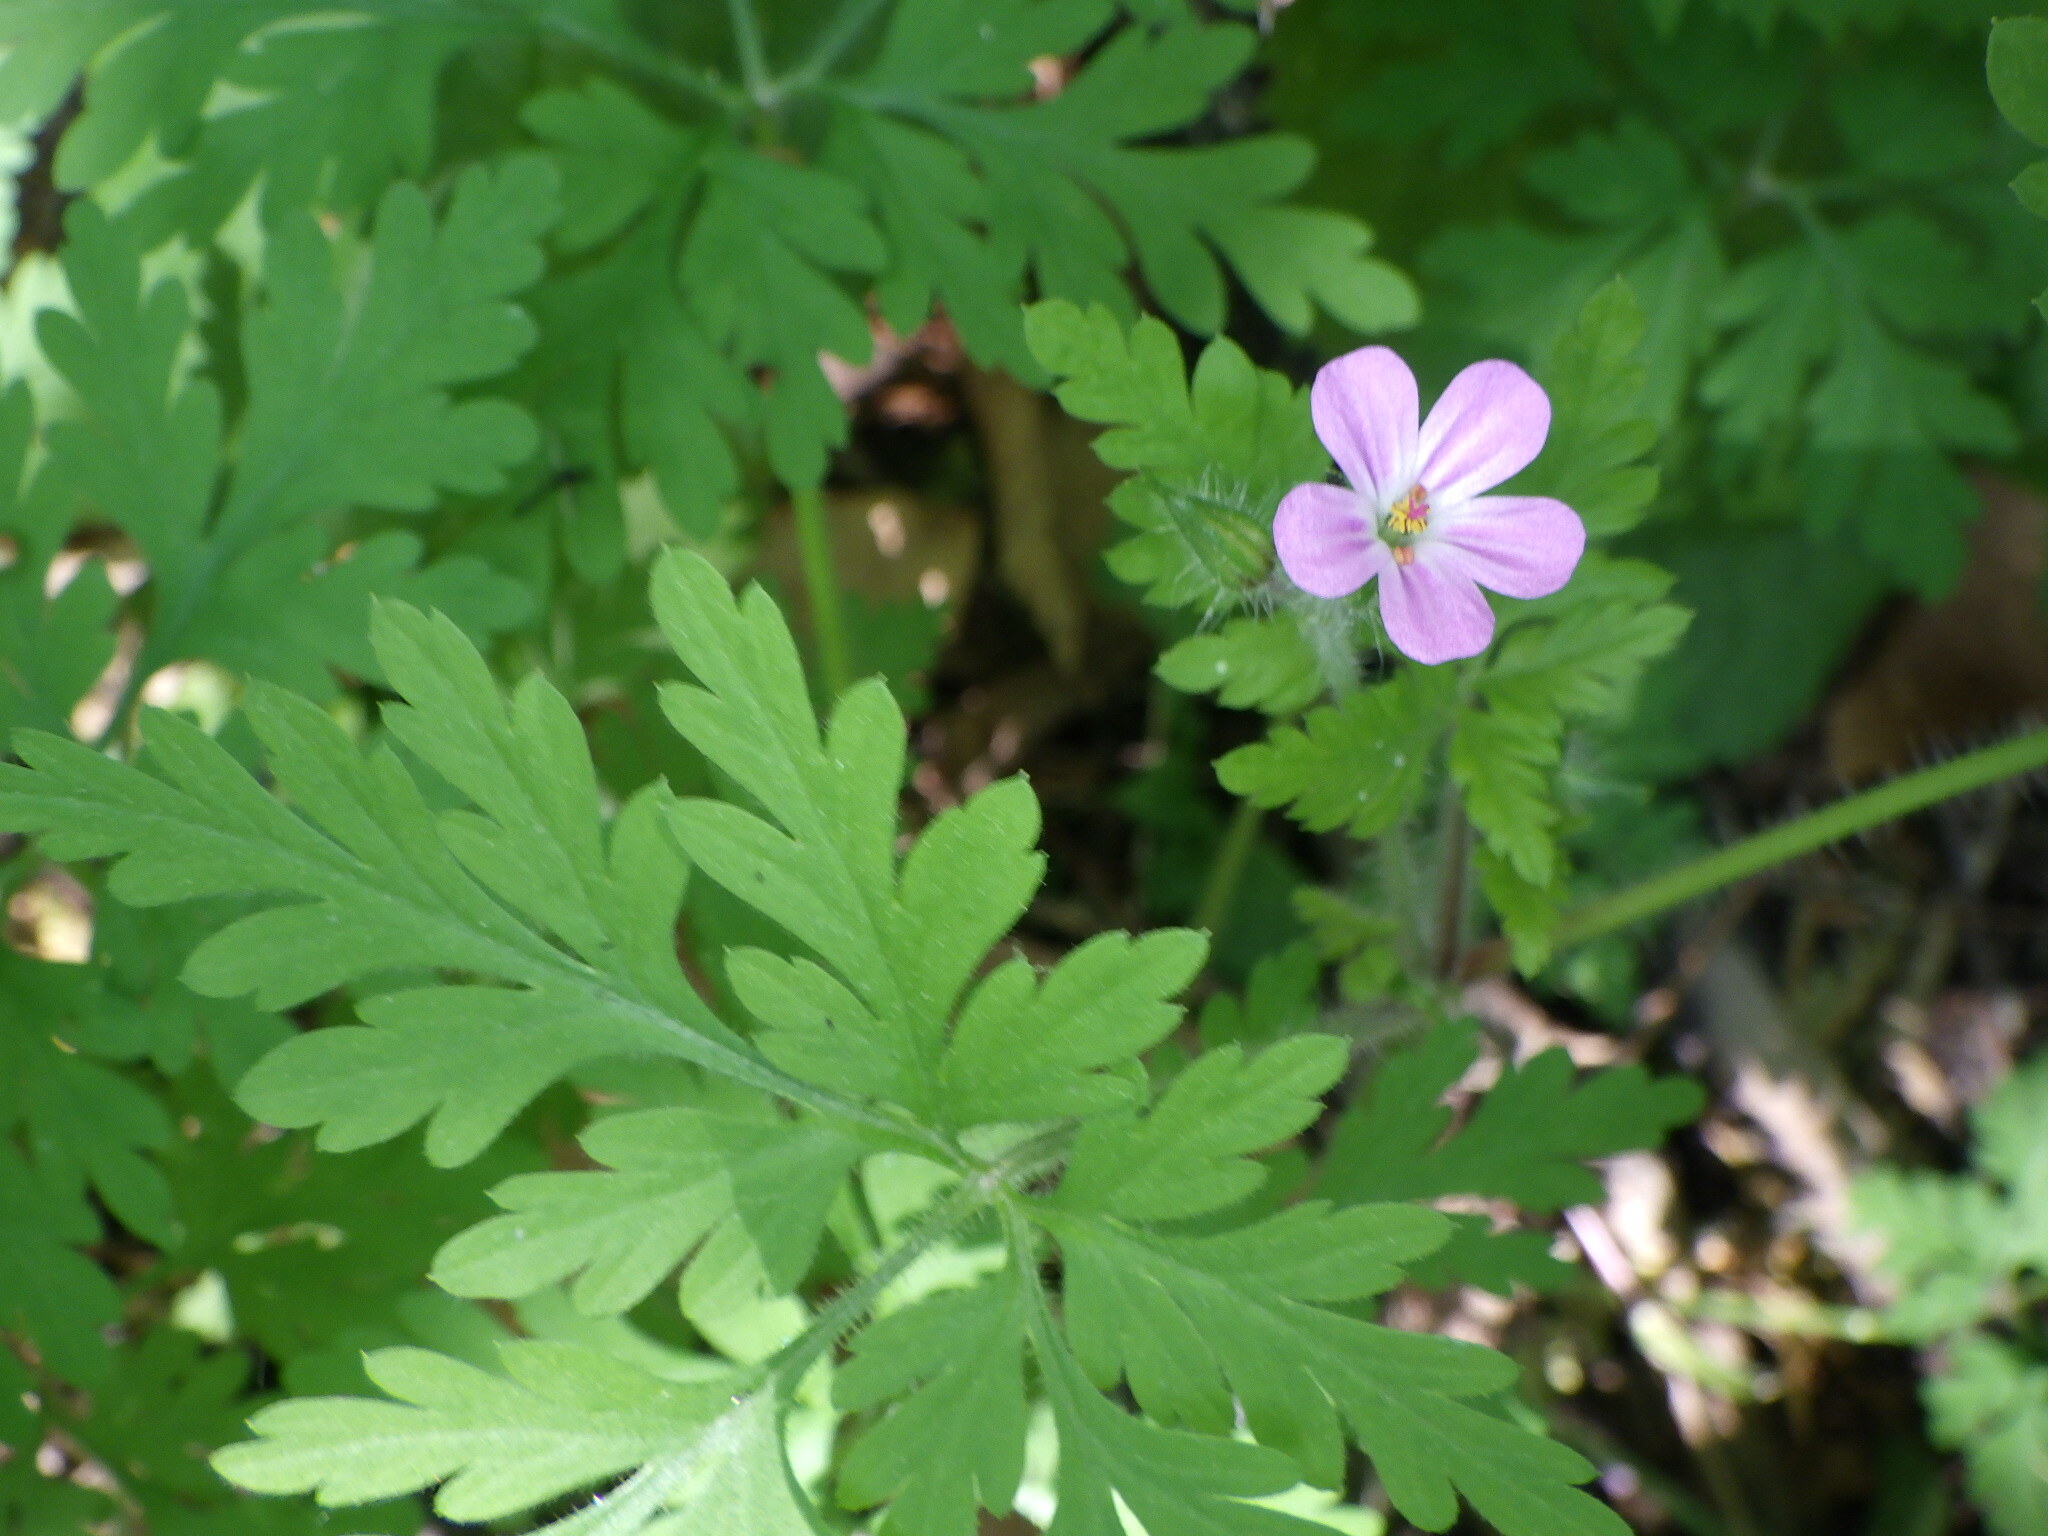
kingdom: Plantae
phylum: Tracheophyta
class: Magnoliopsida
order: Geraniales
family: Geraniaceae
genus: Geranium
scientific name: Geranium robertianum
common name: Herb-robert
